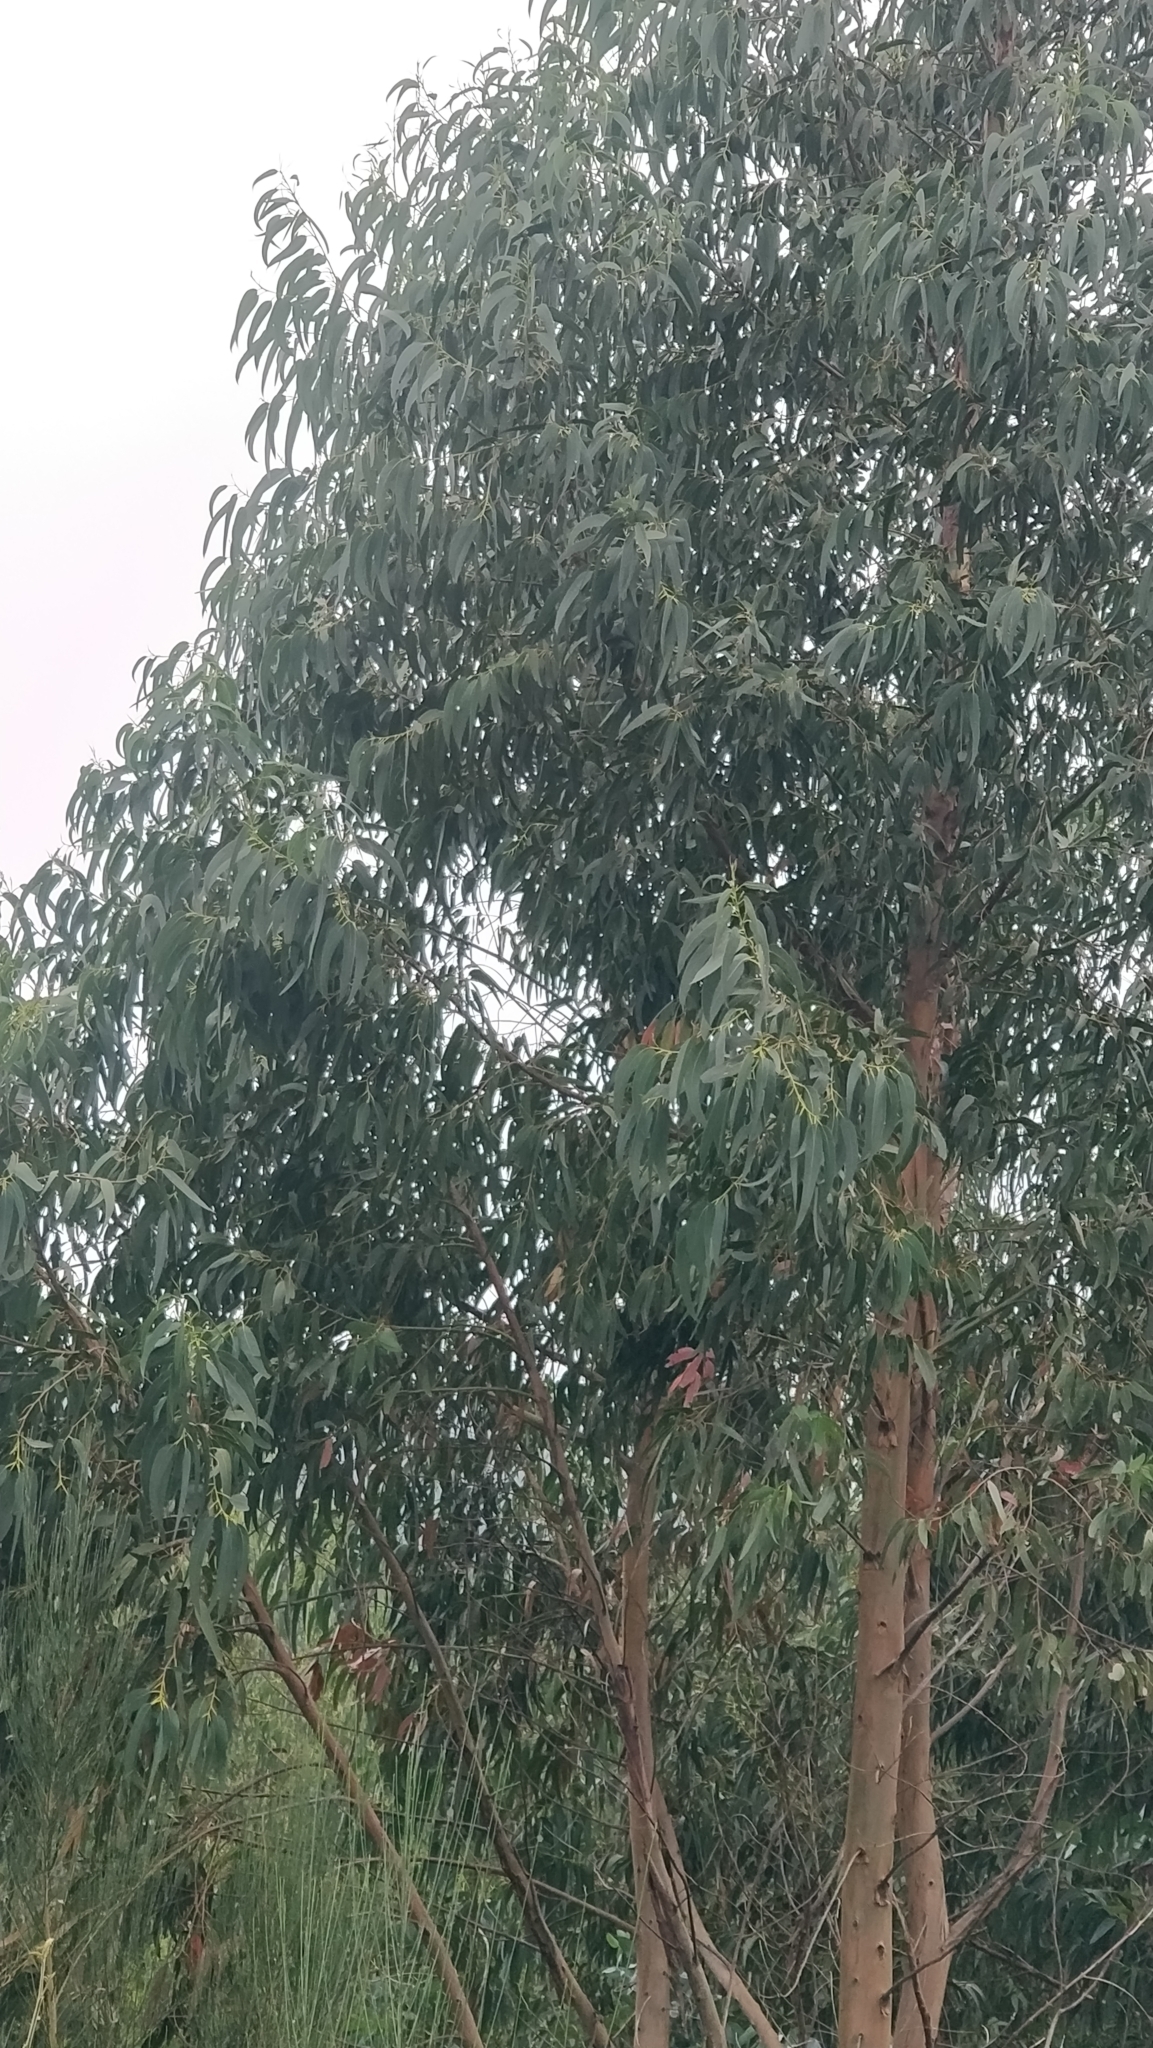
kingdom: Plantae
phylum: Tracheophyta
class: Magnoliopsida
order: Myrtales
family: Myrtaceae
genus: Eucalyptus
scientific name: Eucalyptus globulus
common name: Southern blue-gum
